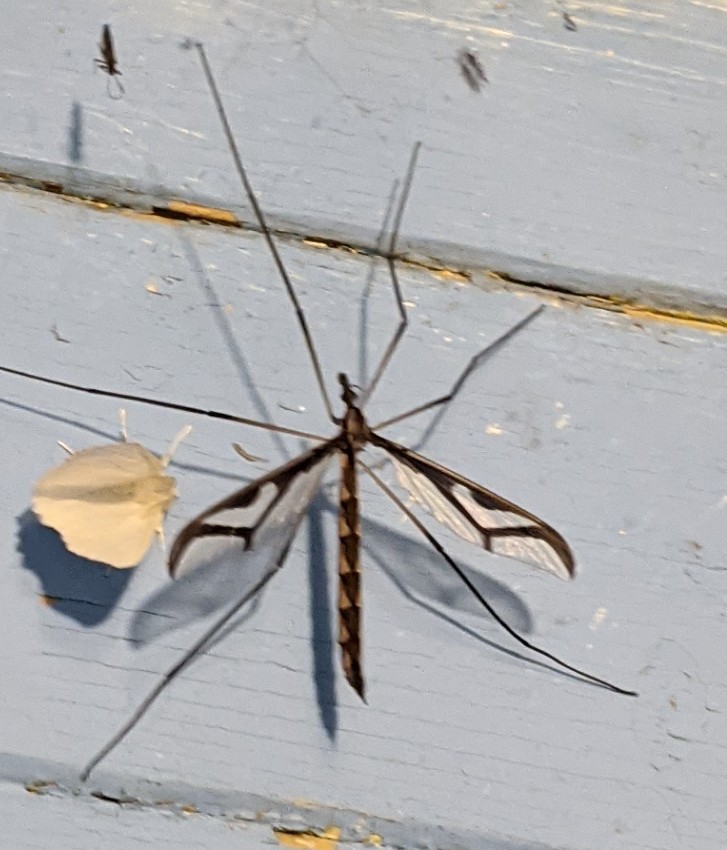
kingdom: Animalia
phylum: Arthropoda
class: Insecta
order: Diptera
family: Pediciidae
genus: Pedicia
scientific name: Pedicia albivitta
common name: Giant eastern crane fly
